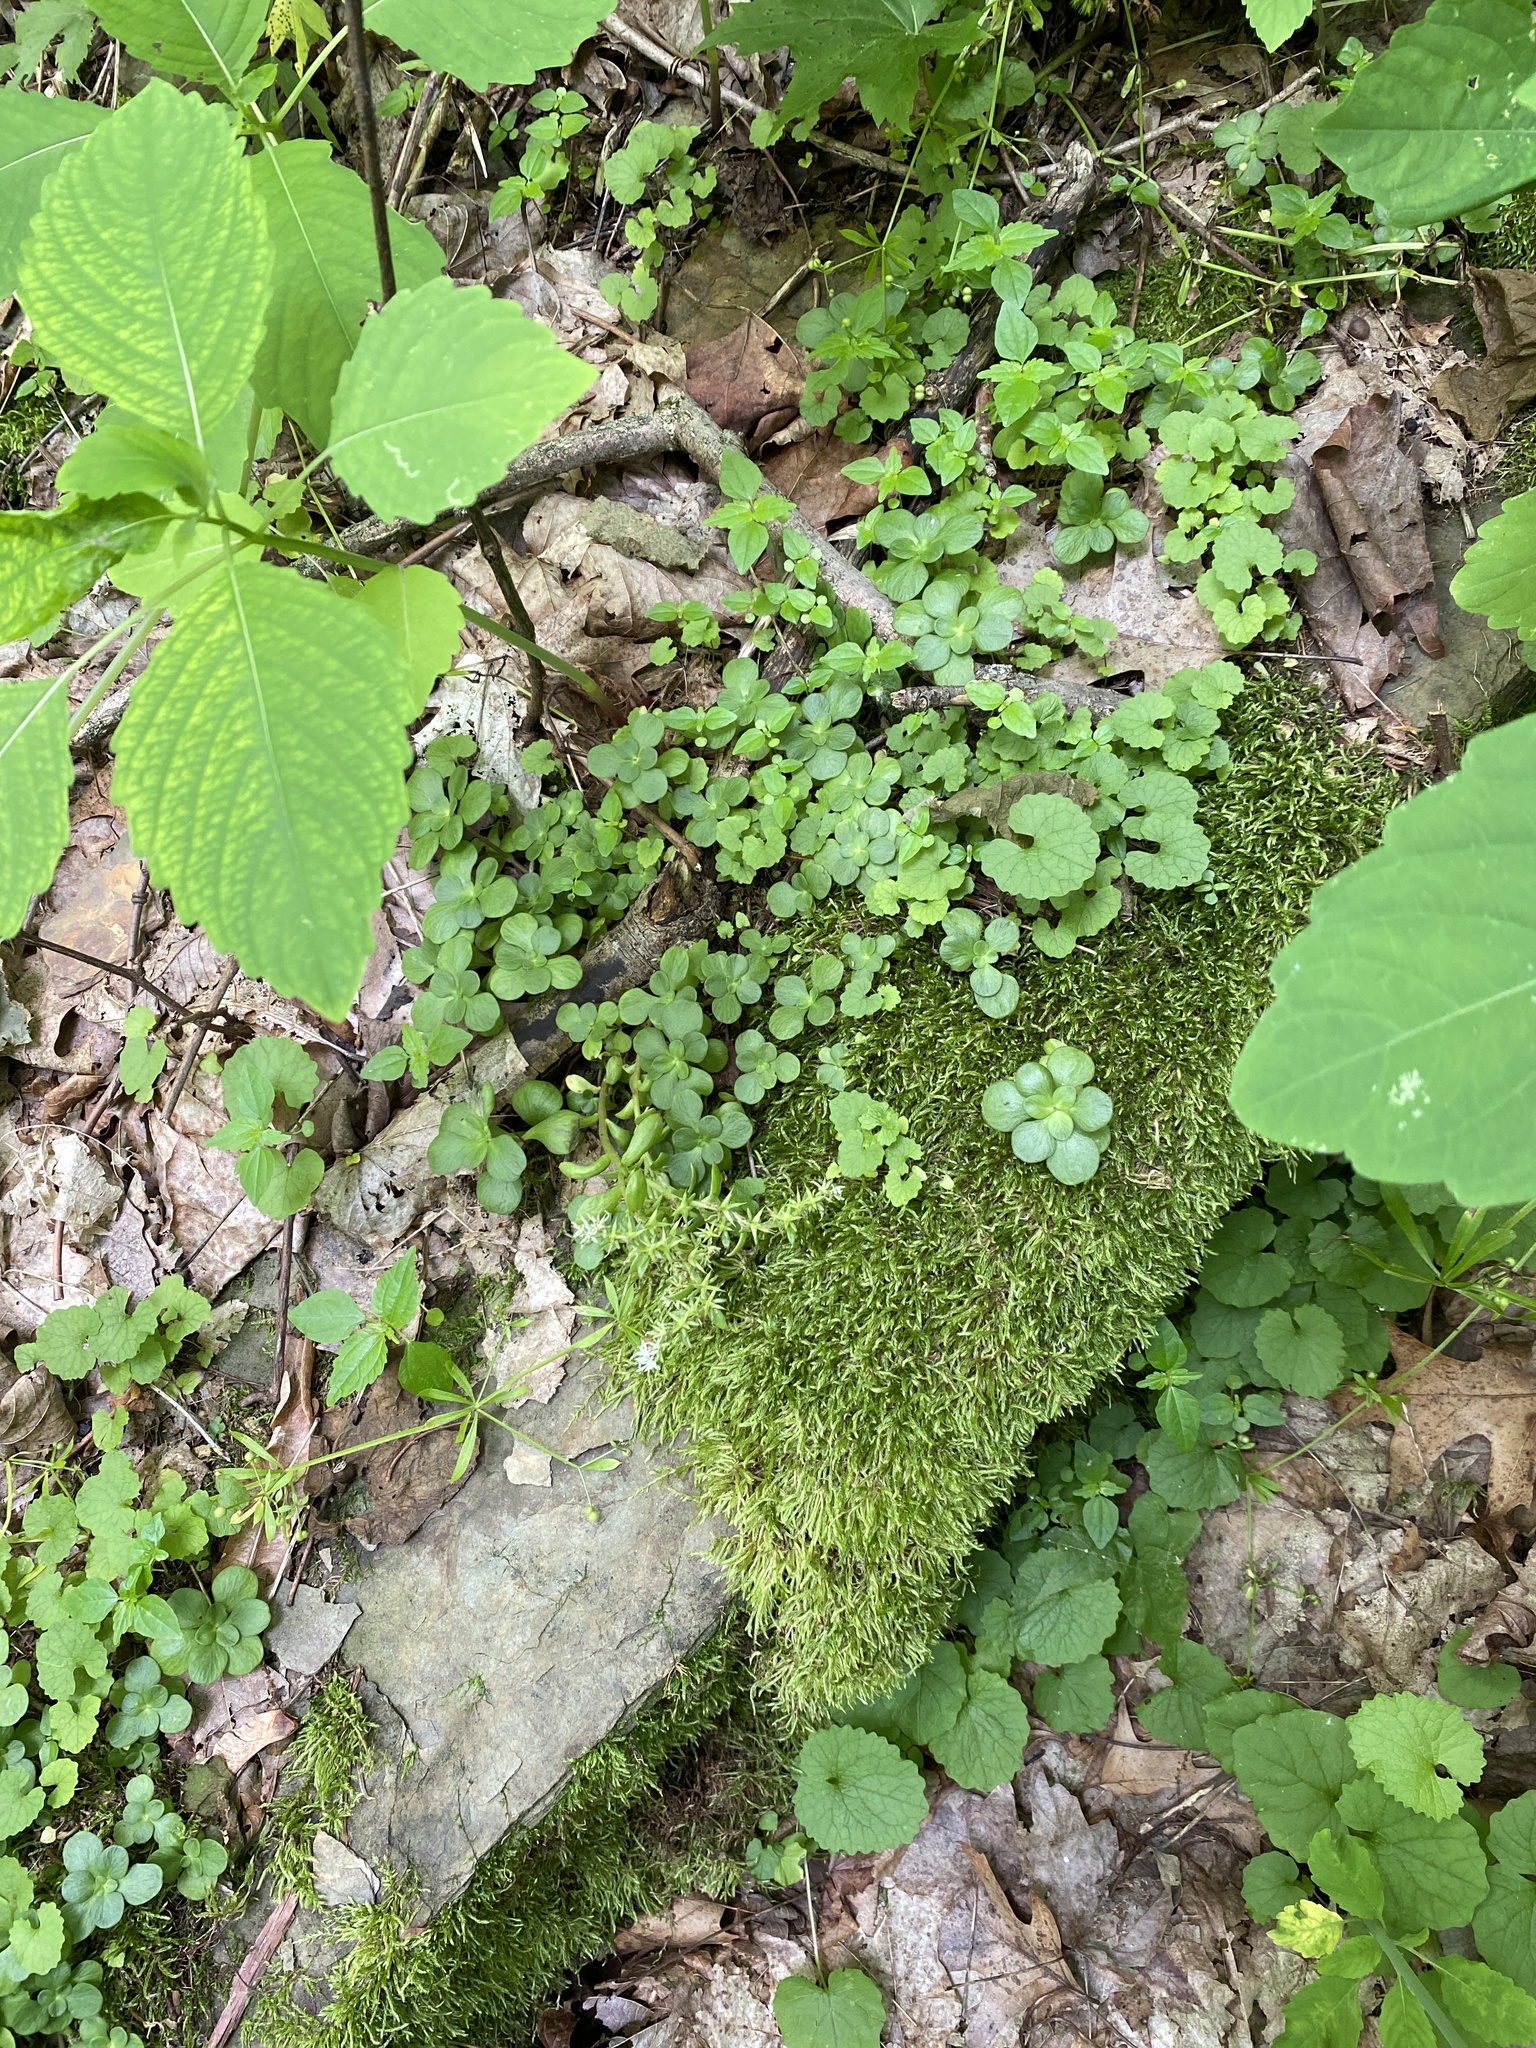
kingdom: Plantae
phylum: Tracheophyta
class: Magnoliopsida
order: Saxifragales
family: Crassulaceae
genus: Sedum
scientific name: Sedum ternatum
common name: Wild stonecrop
